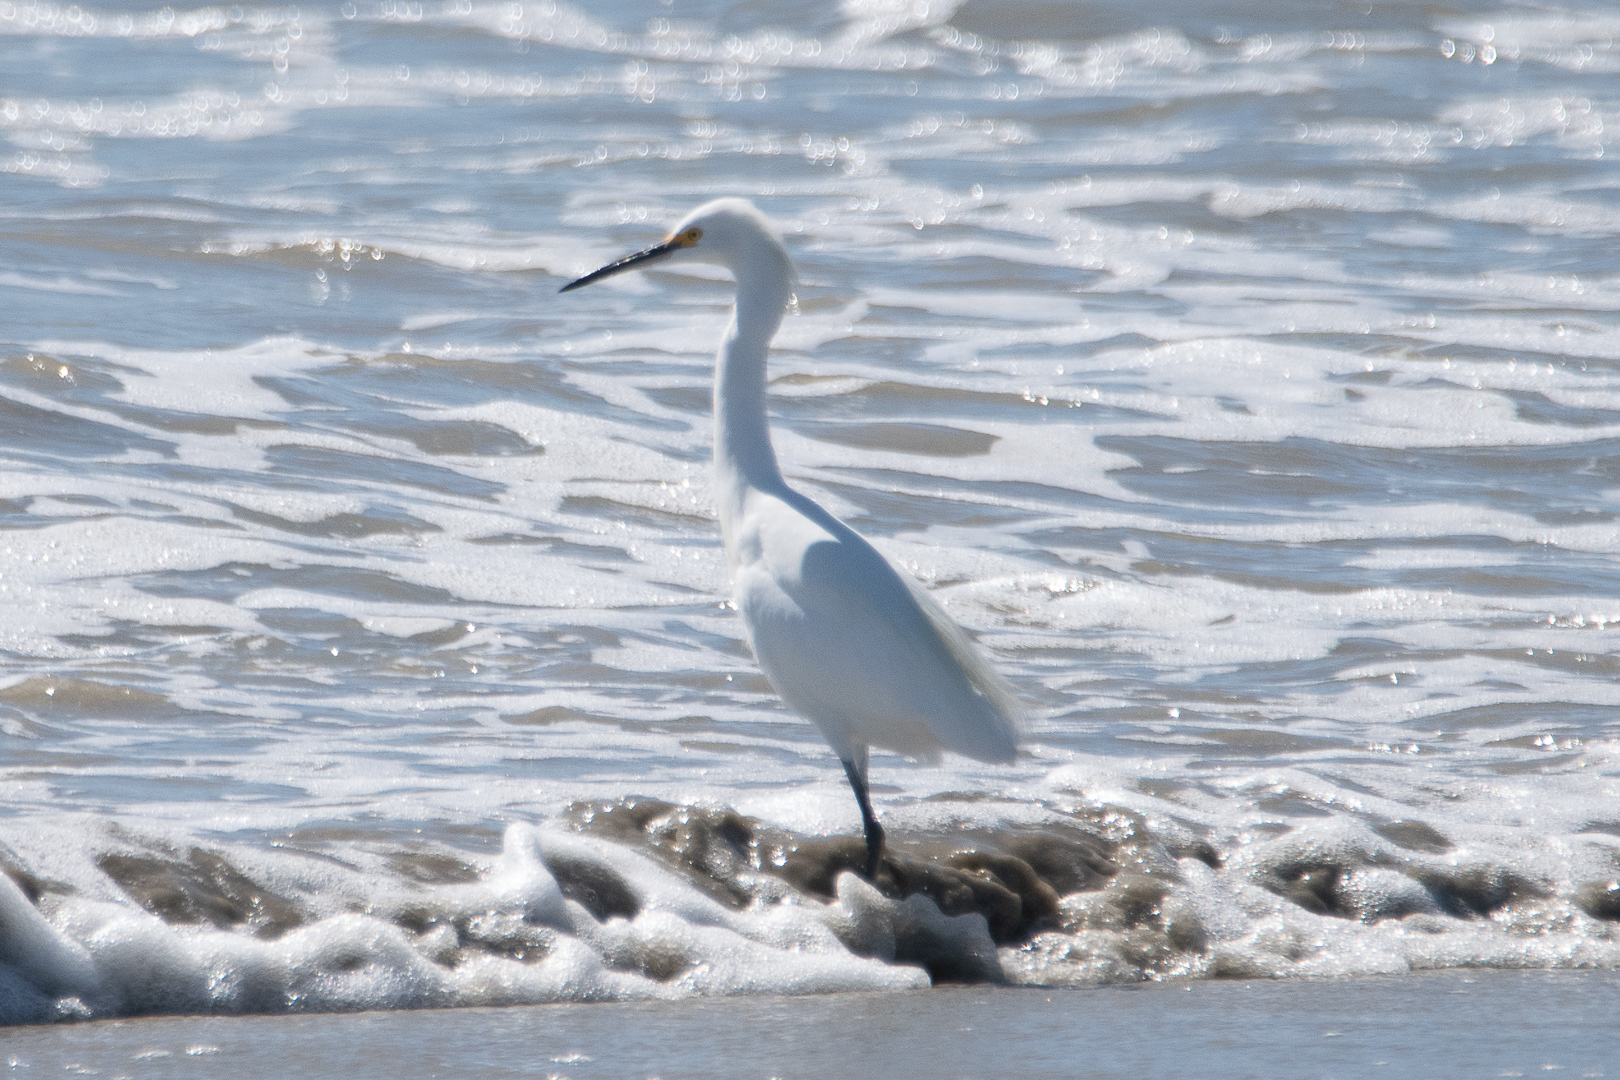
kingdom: Animalia
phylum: Chordata
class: Aves
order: Pelecaniformes
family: Ardeidae
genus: Egretta
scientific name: Egretta thula
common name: Snowy egret
